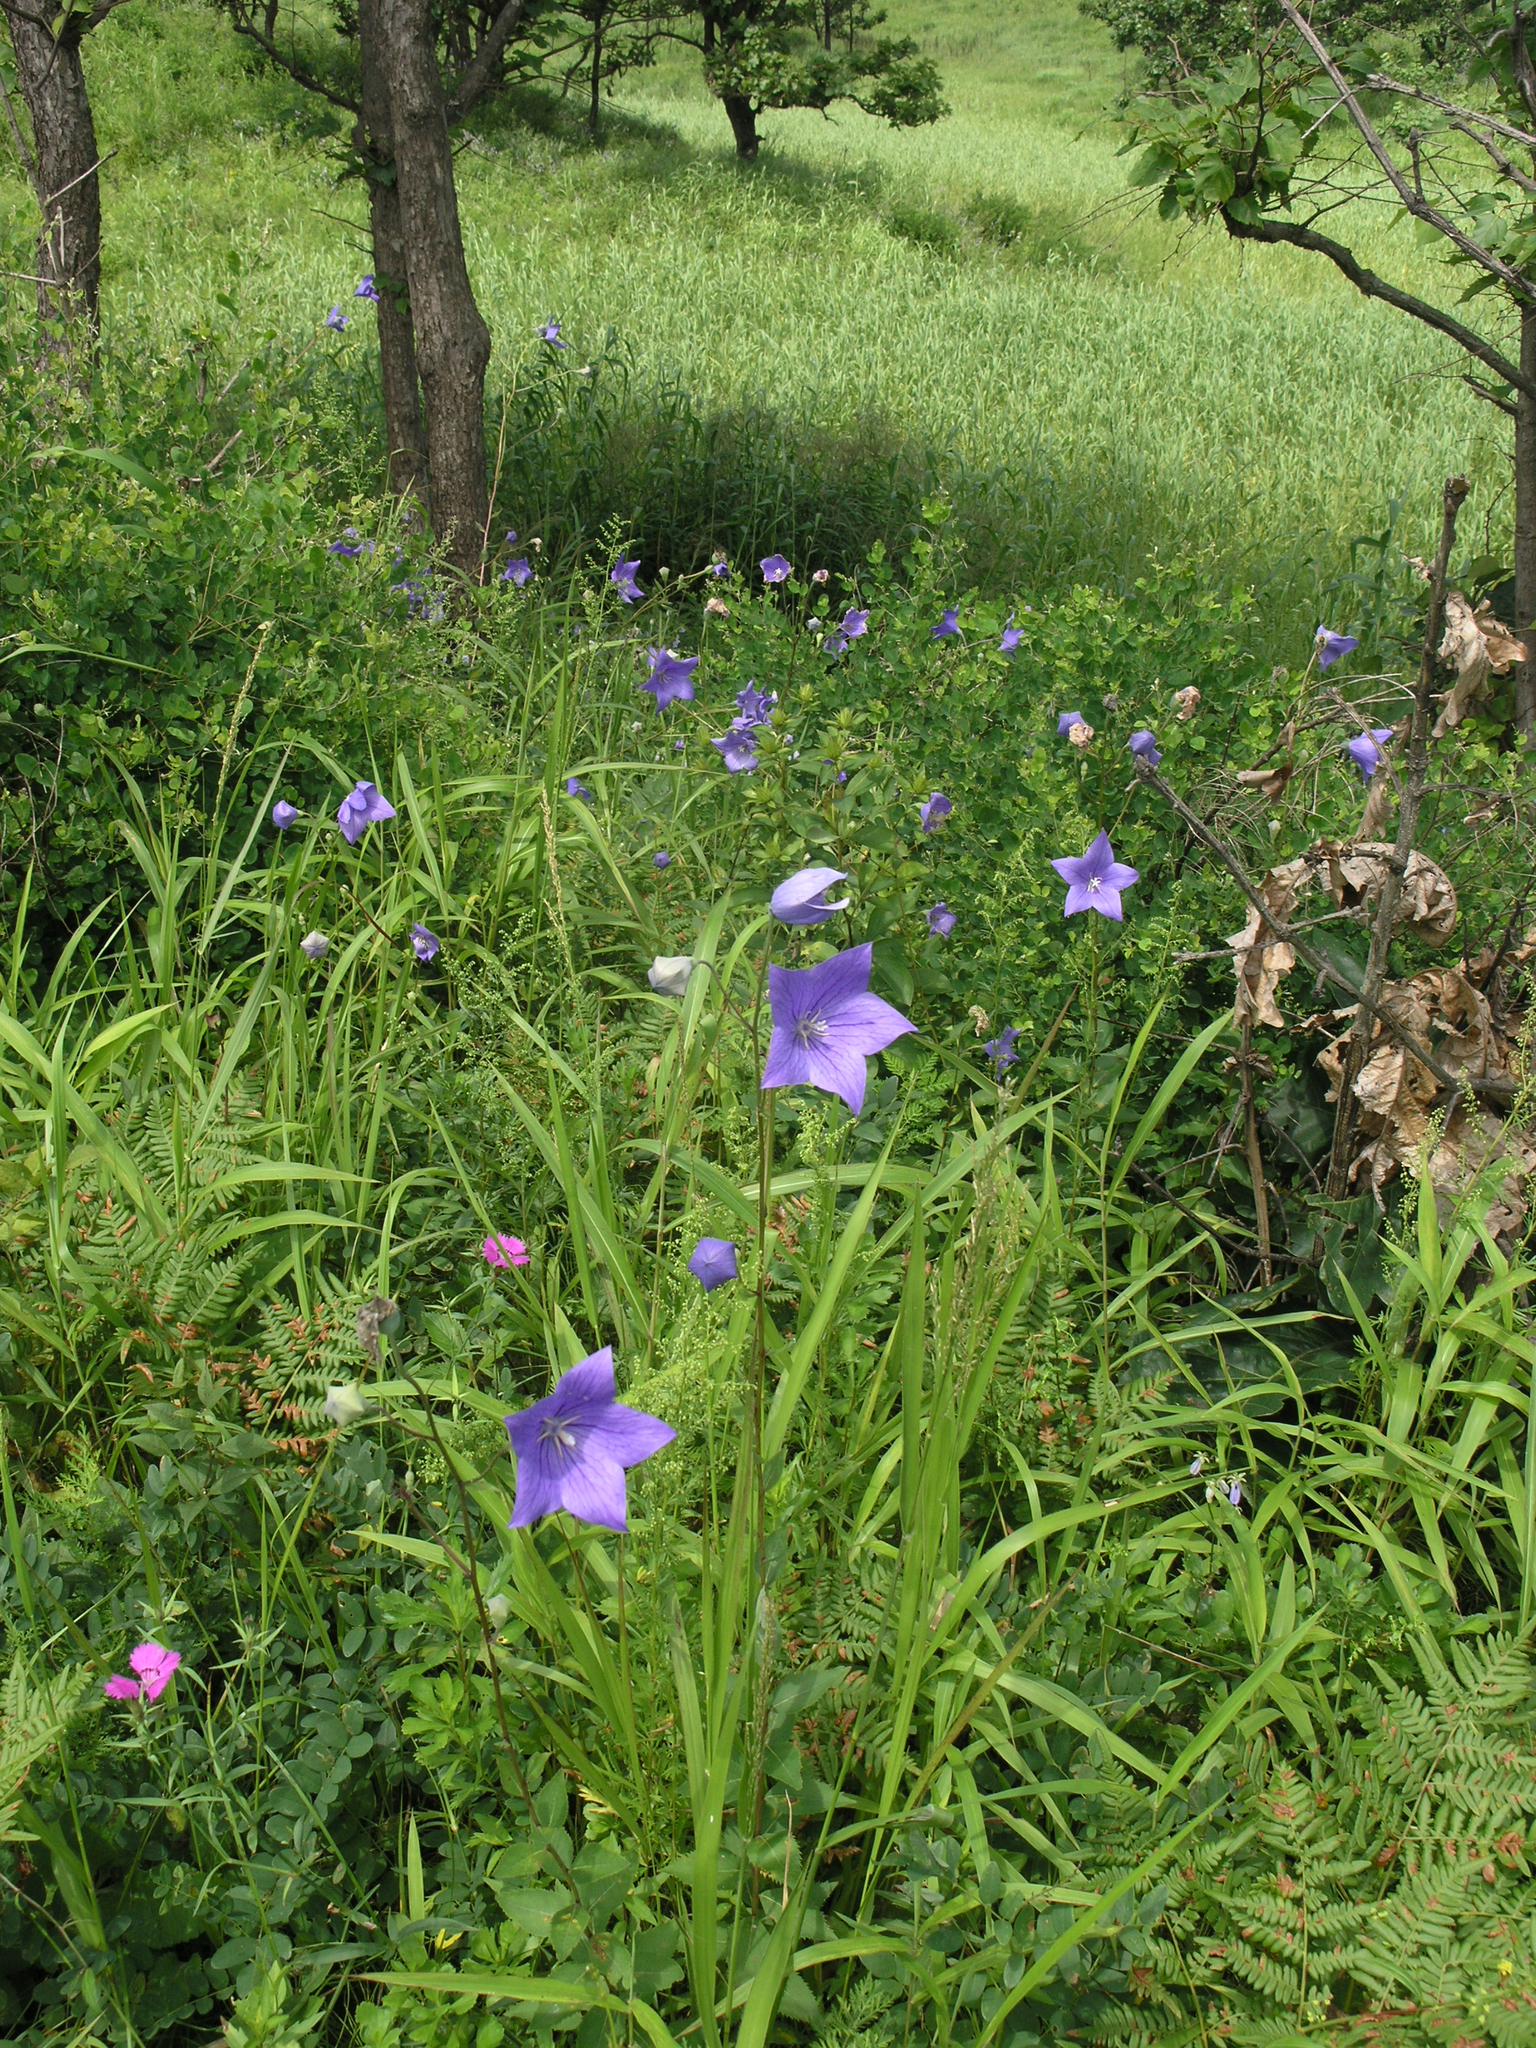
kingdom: Plantae
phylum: Tracheophyta
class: Magnoliopsida
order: Asterales
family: Campanulaceae
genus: Platycodon
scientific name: Platycodon grandiflorus
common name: Balloon-flower
